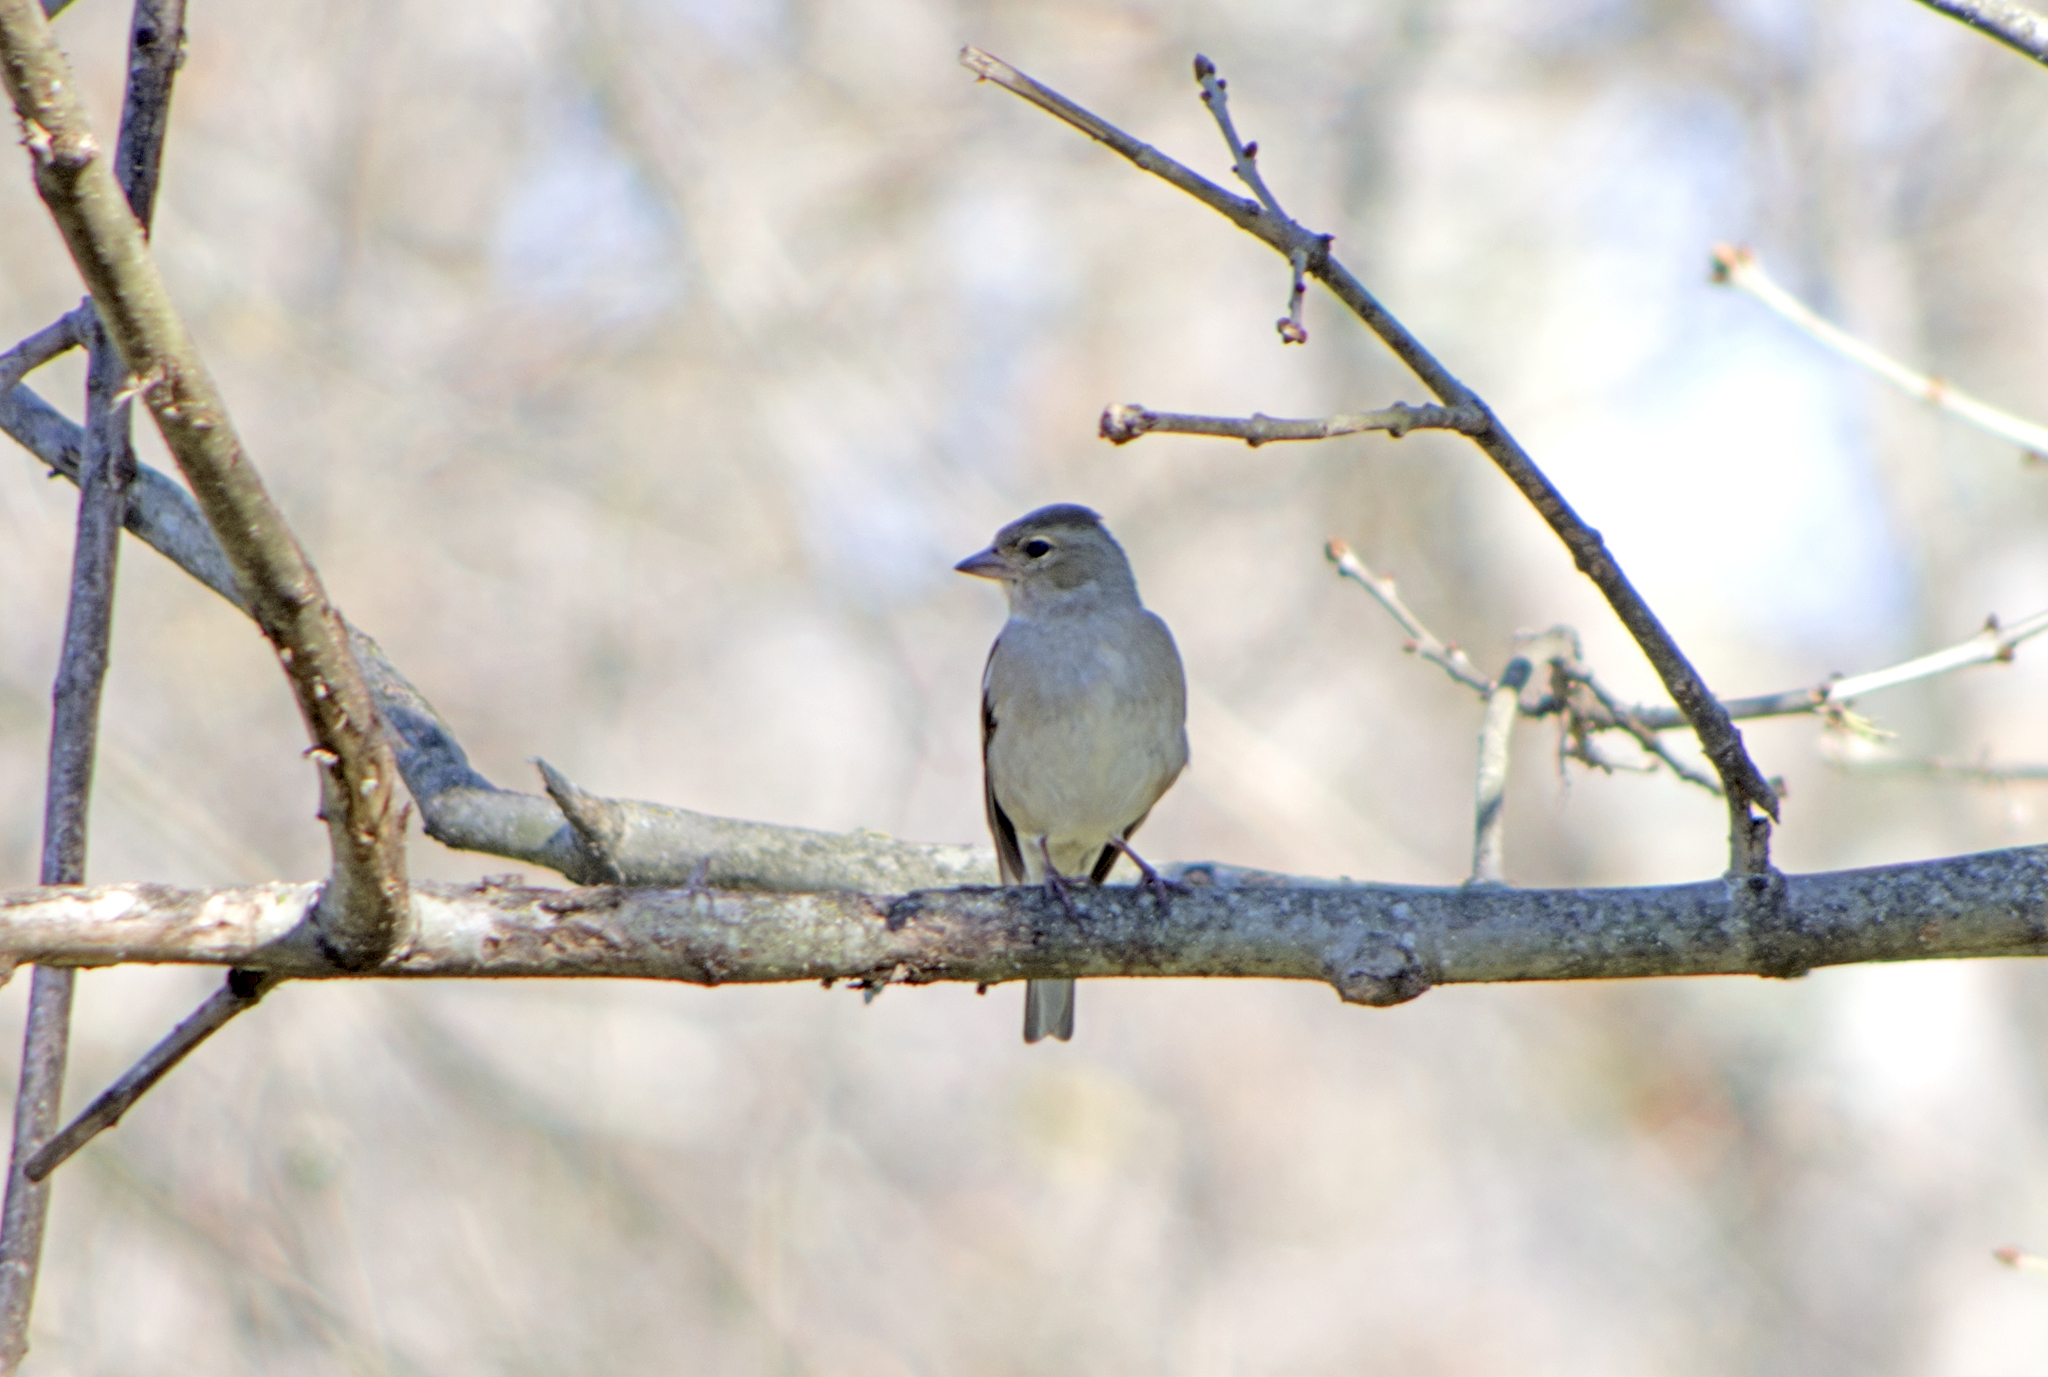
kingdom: Animalia
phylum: Chordata
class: Aves
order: Passeriformes
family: Fringillidae
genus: Fringilla
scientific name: Fringilla coelebs
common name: Common chaffinch
